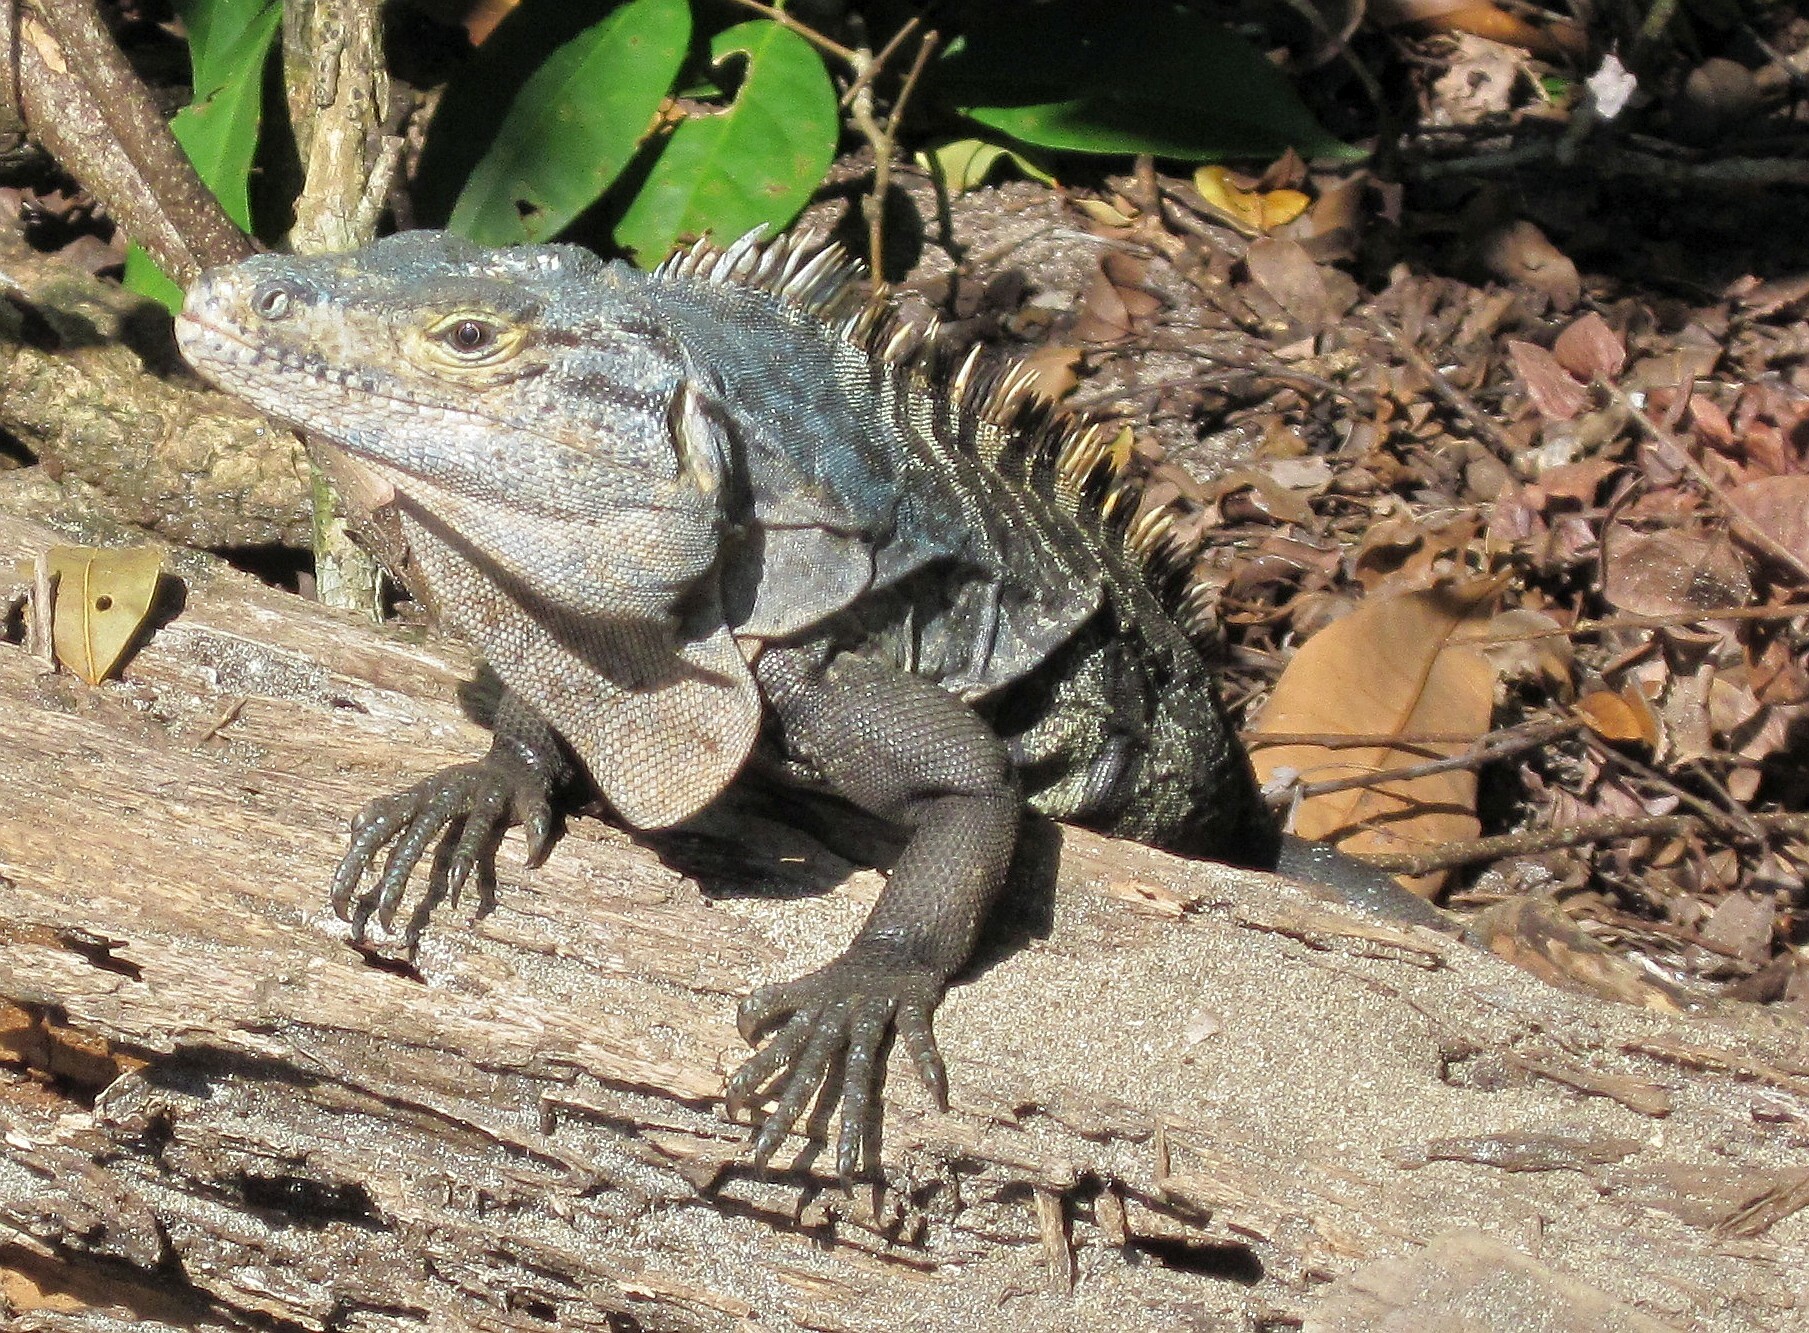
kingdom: Animalia
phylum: Chordata
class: Squamata
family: Iguanidae
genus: Ctenosaura
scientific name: Ctenosaura similis
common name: Black spiny-tailed iguana
